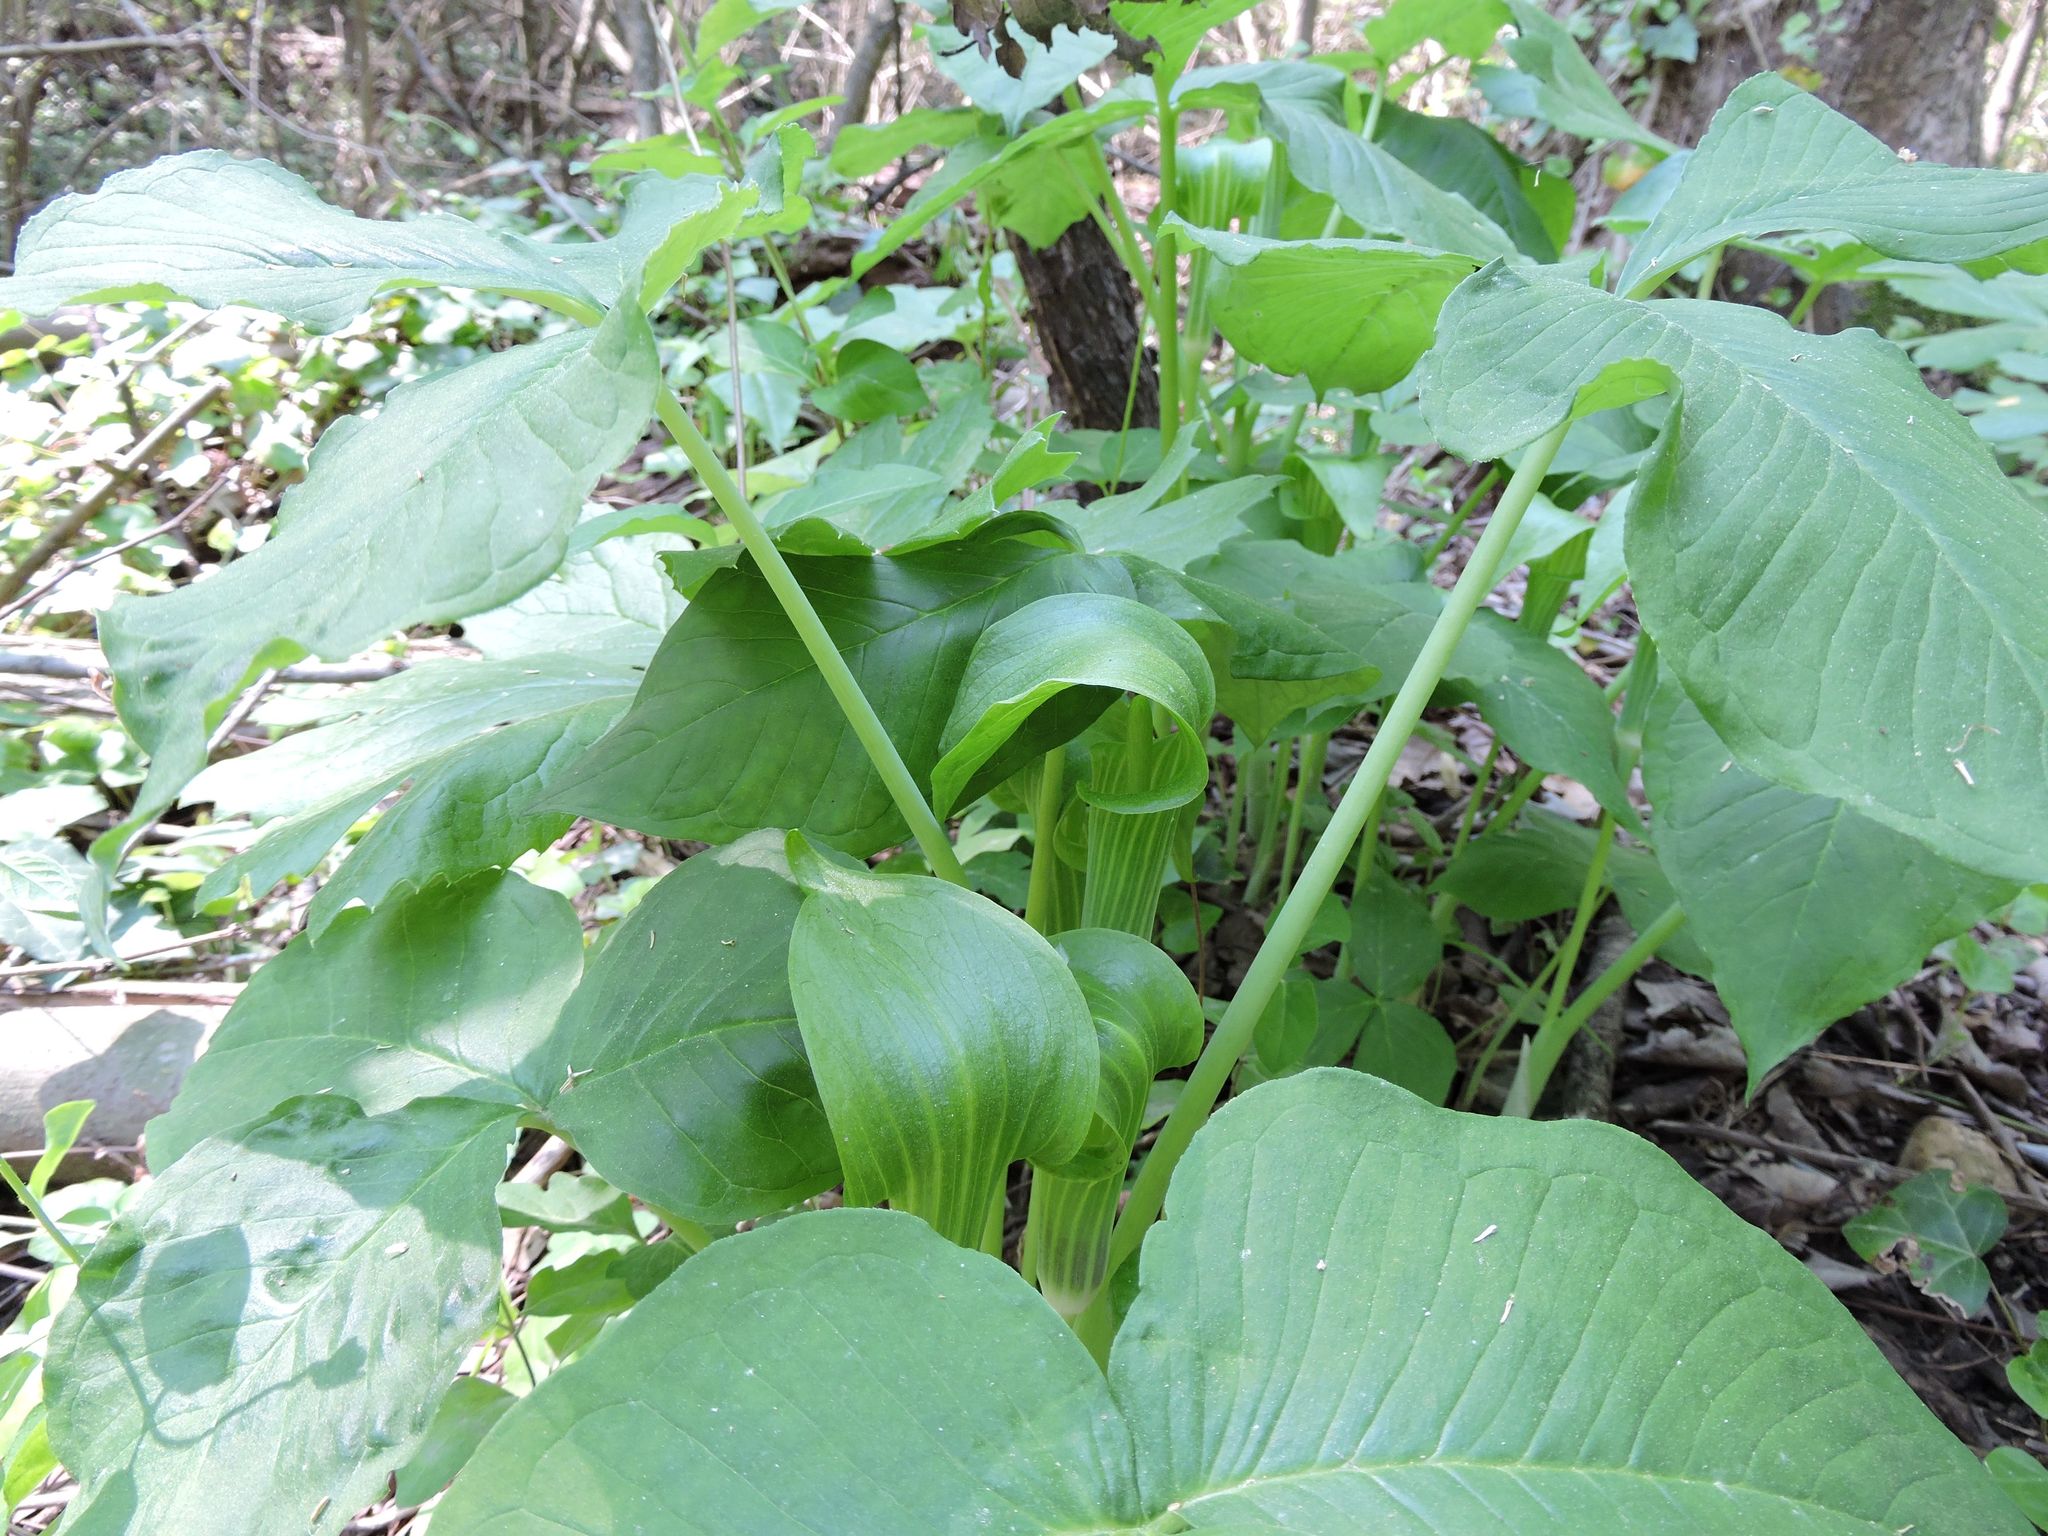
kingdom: Plantae
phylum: Tracheophyta
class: Liliopsida
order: Alismatales
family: Araceae
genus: Arisaema
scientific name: Arisaema triphyllum
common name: Jack-in-the-pulpit
